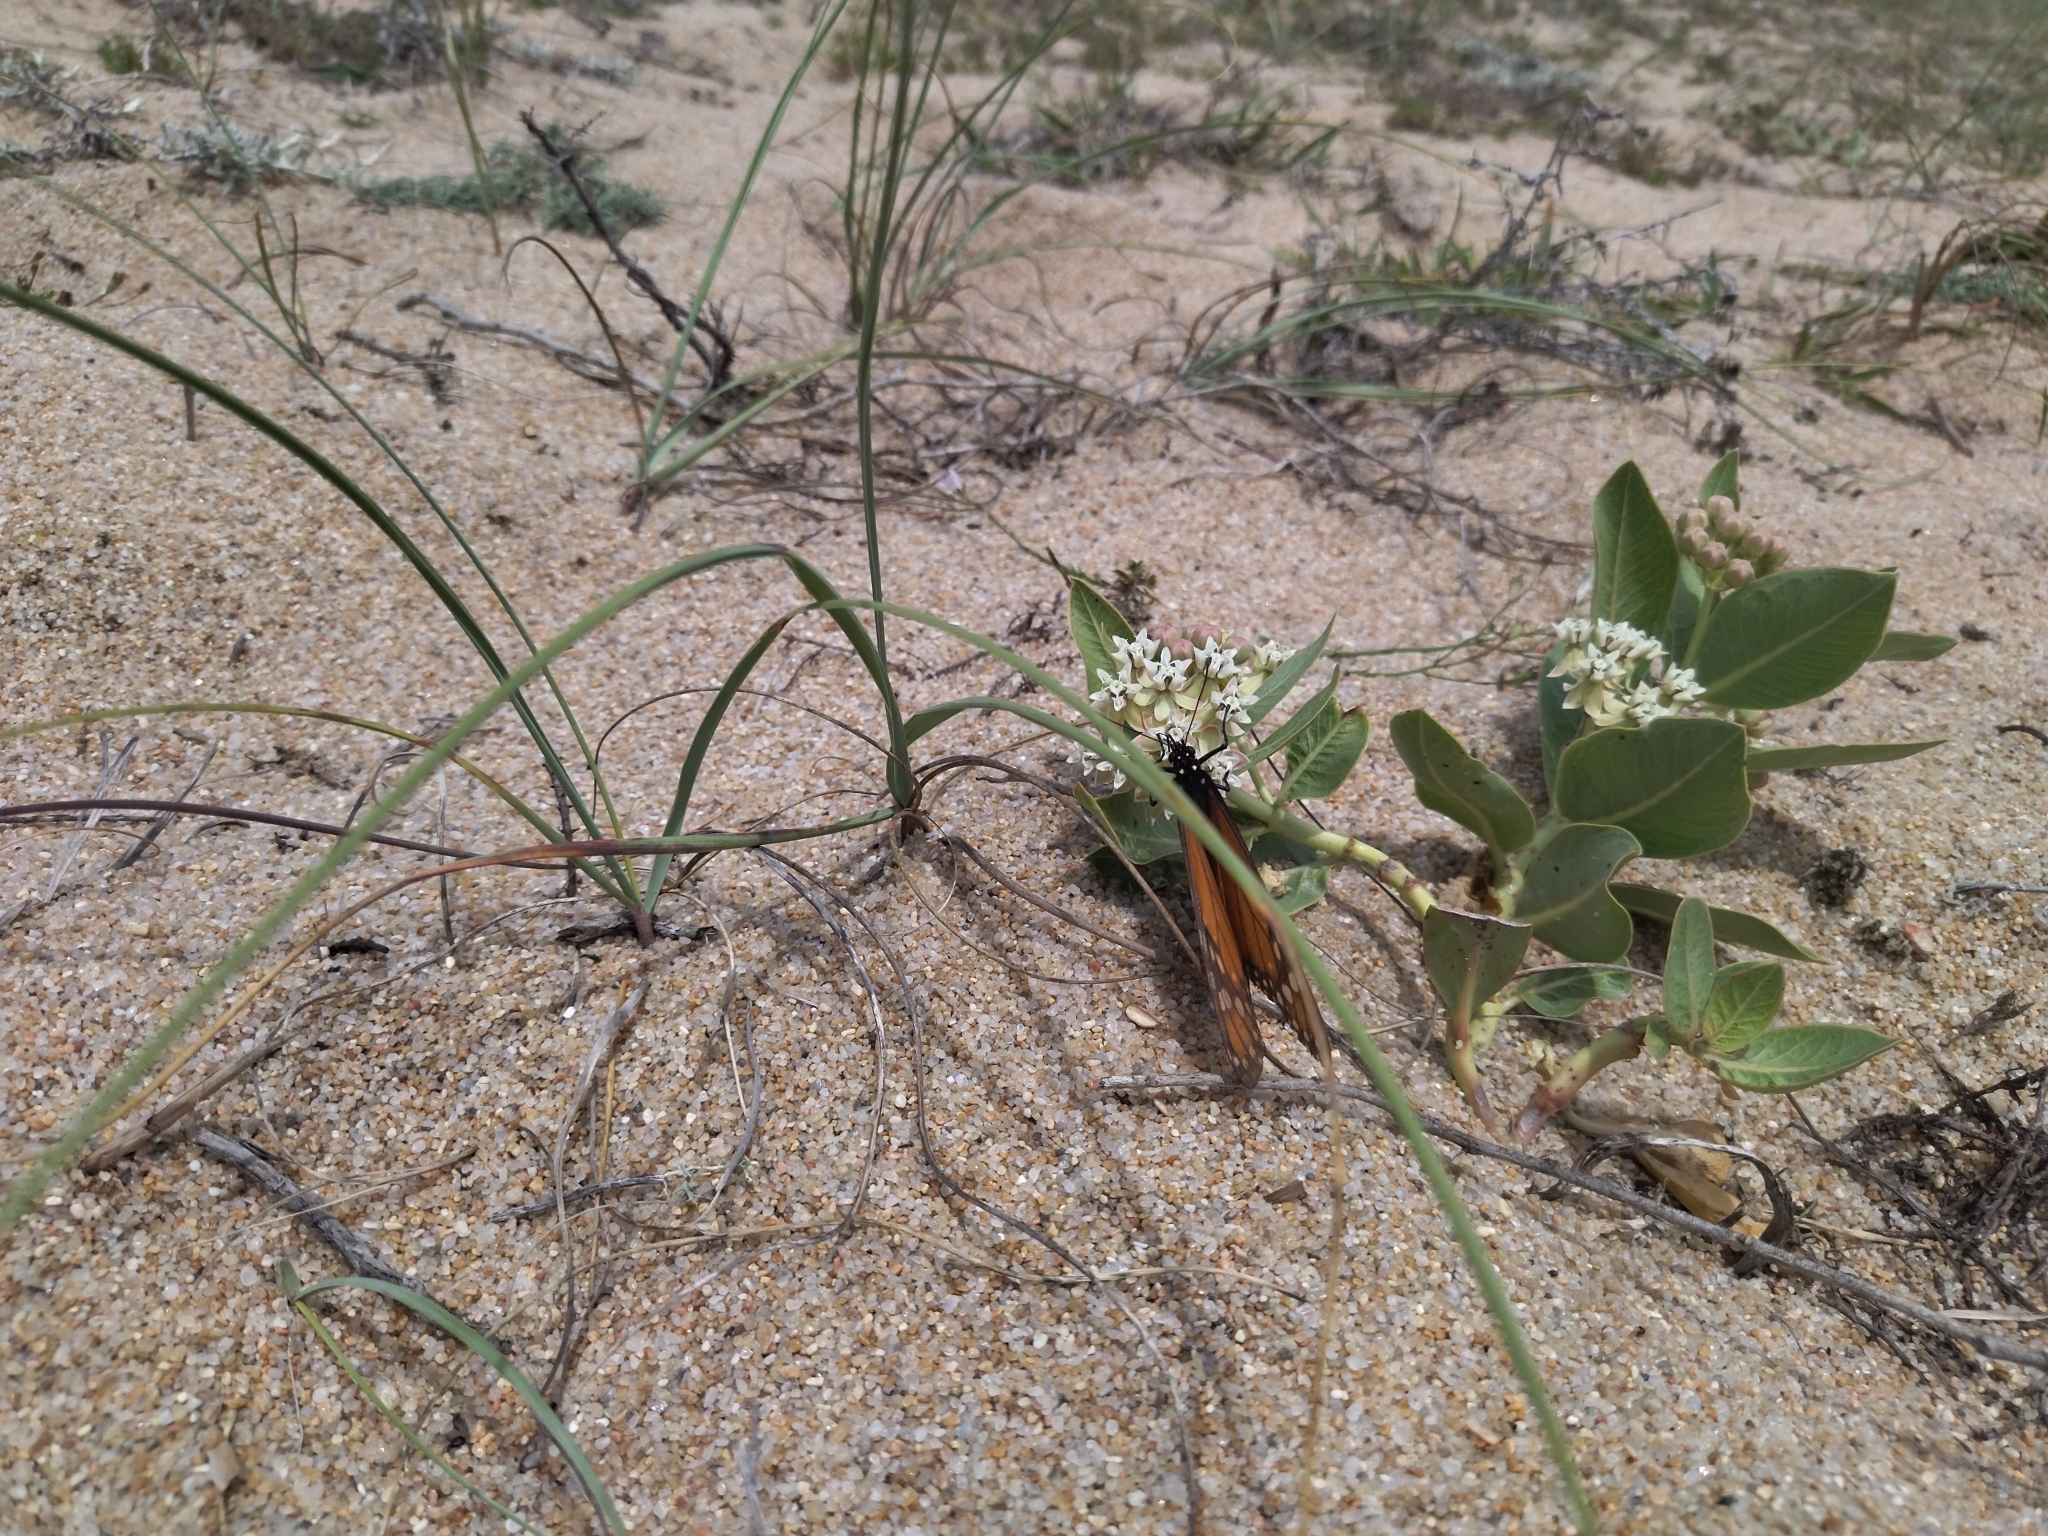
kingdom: Animalia
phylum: Arthropoda
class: Insecta
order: Lepidoptera
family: Nymphalidae
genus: Danaus
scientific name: Danaus erippus
